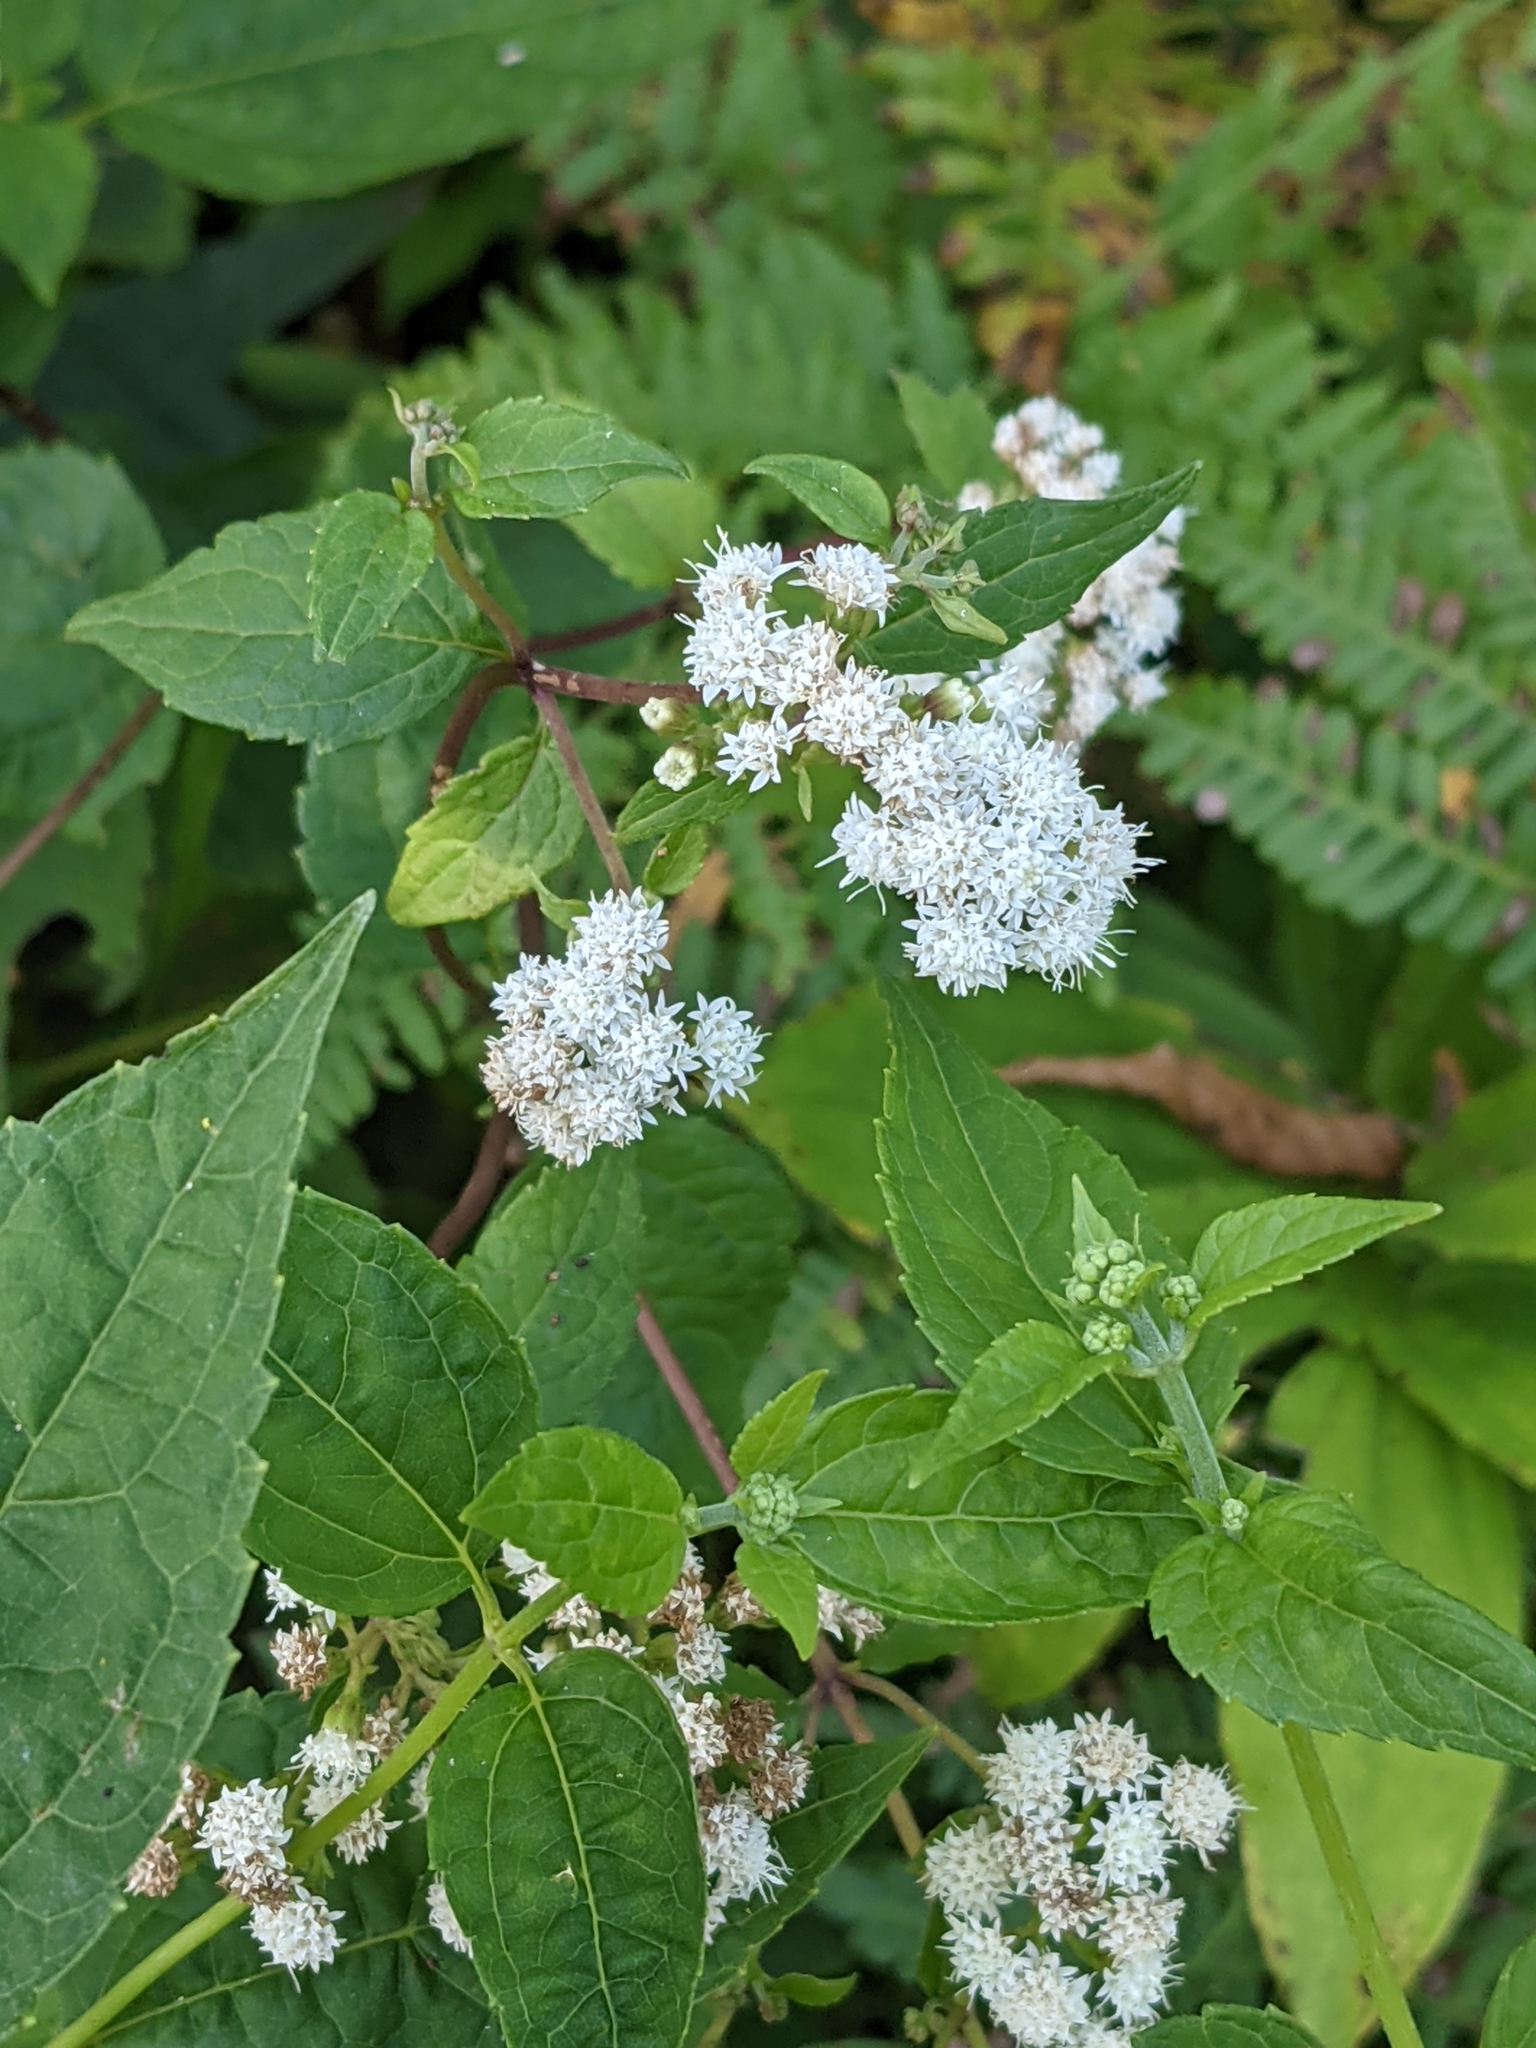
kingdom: Plantae
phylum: Tracheophyta
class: Magnoliopsida
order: Asterales
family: Asteraceae
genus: Ageratina
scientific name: Ageratina altissima
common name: White snakeroot
